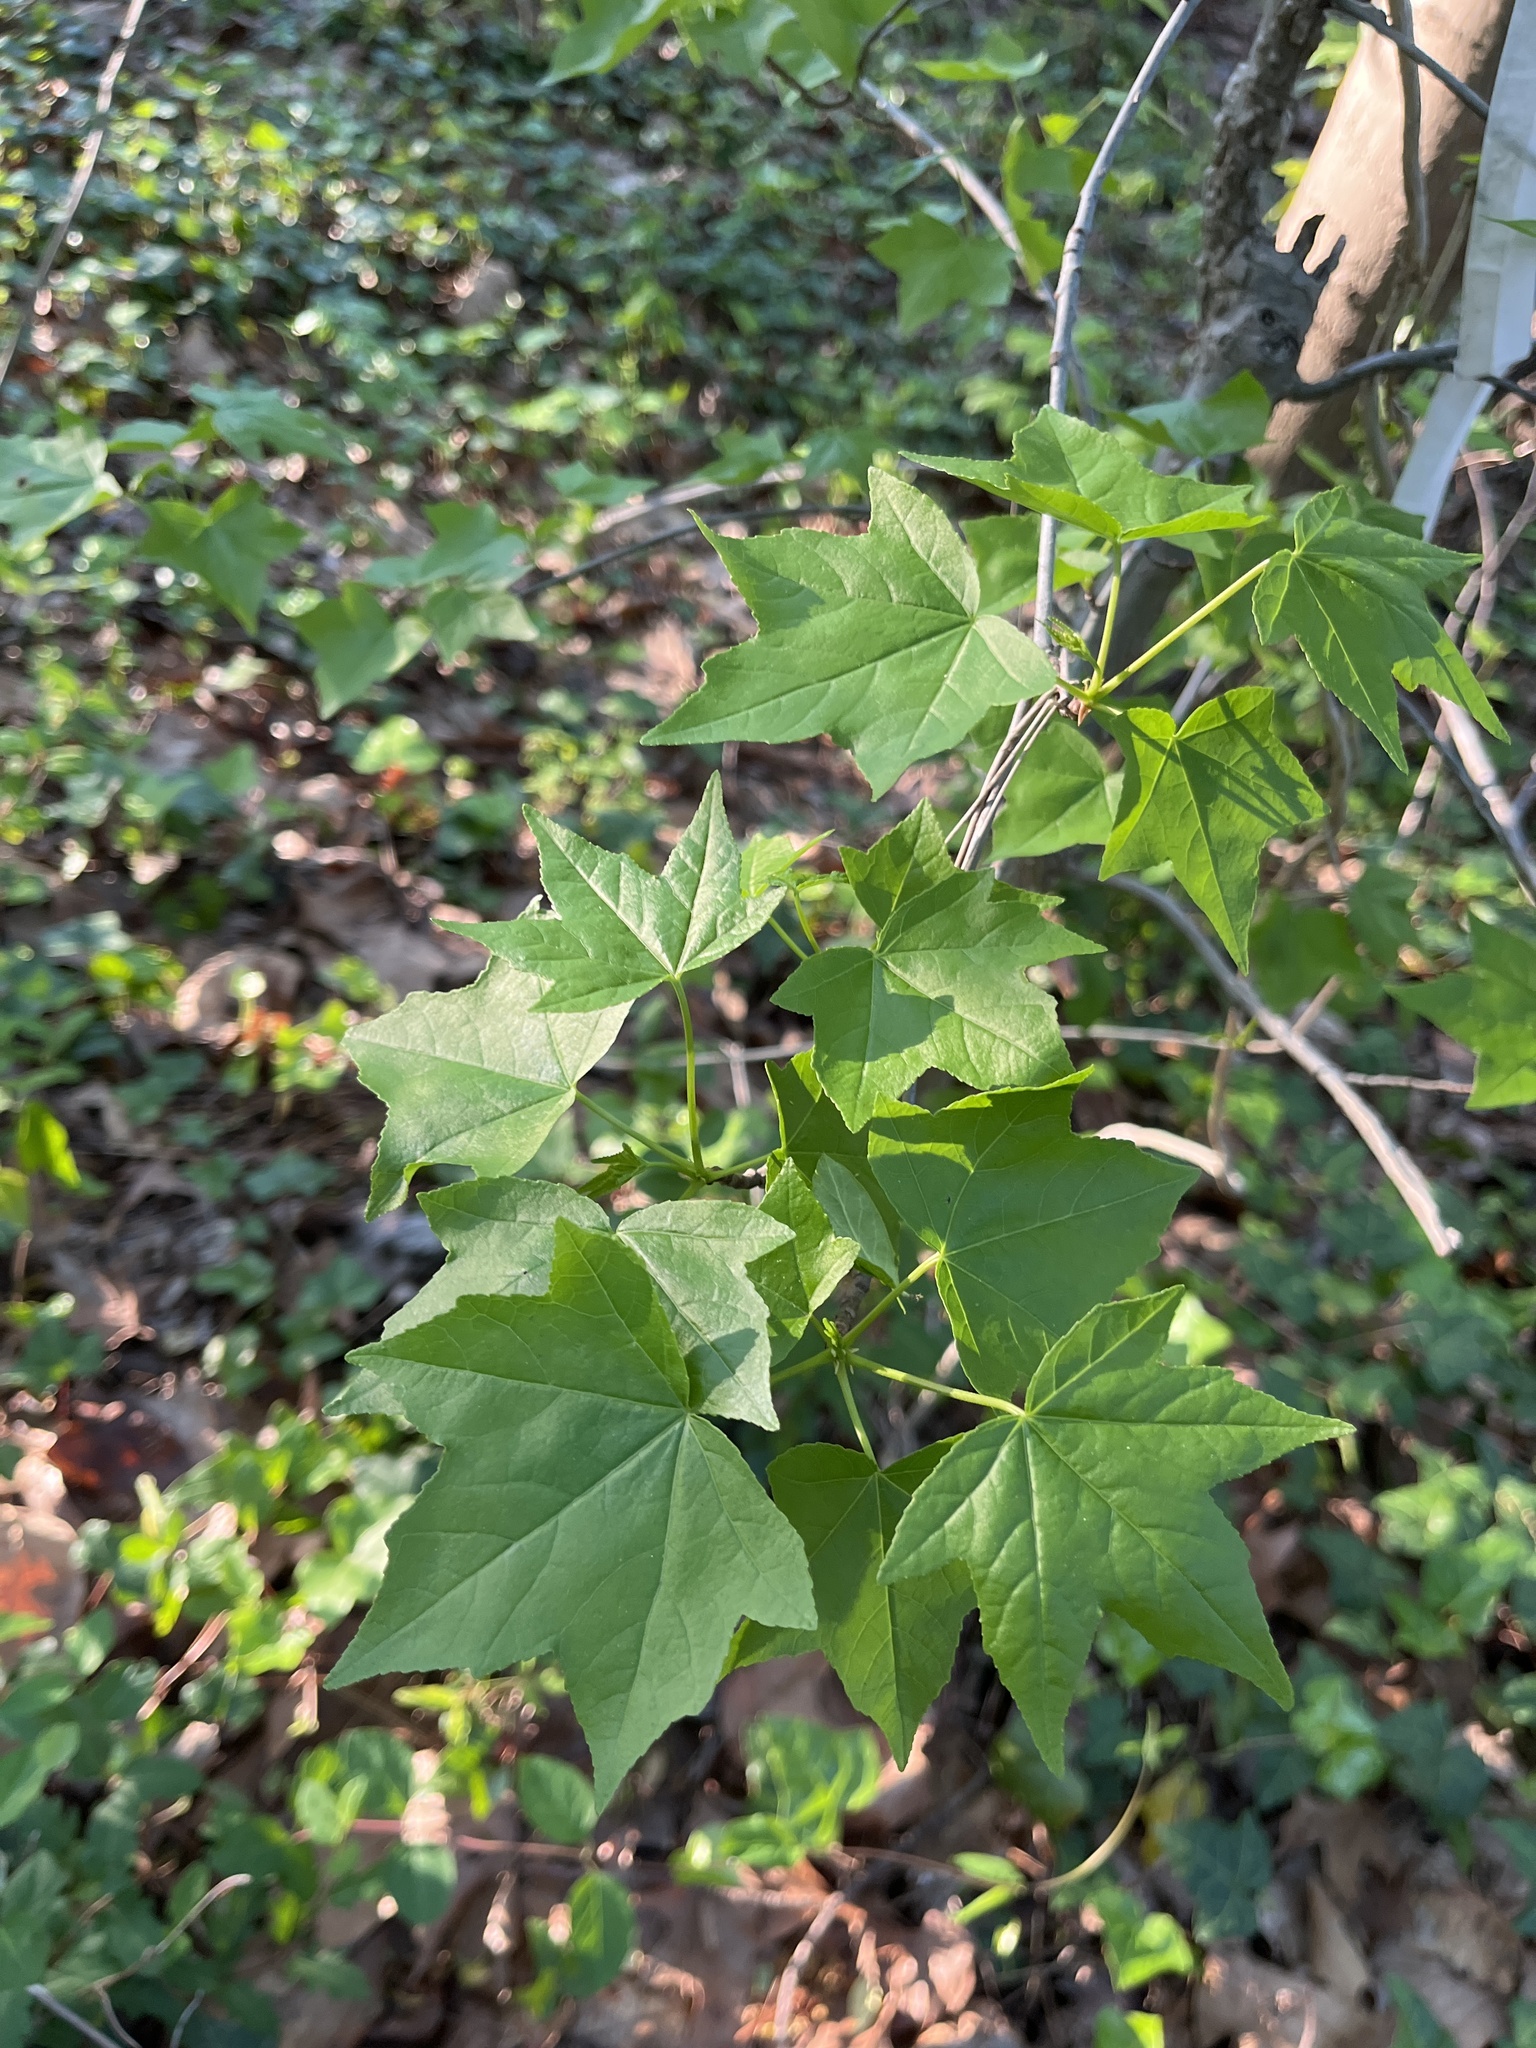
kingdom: Plantae
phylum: Tracheophyta
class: Magnoliopsida
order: Saxifragales
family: Altingiaceae
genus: Liquidambar
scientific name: Liquidambar styraciflua
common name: Sweet gum
